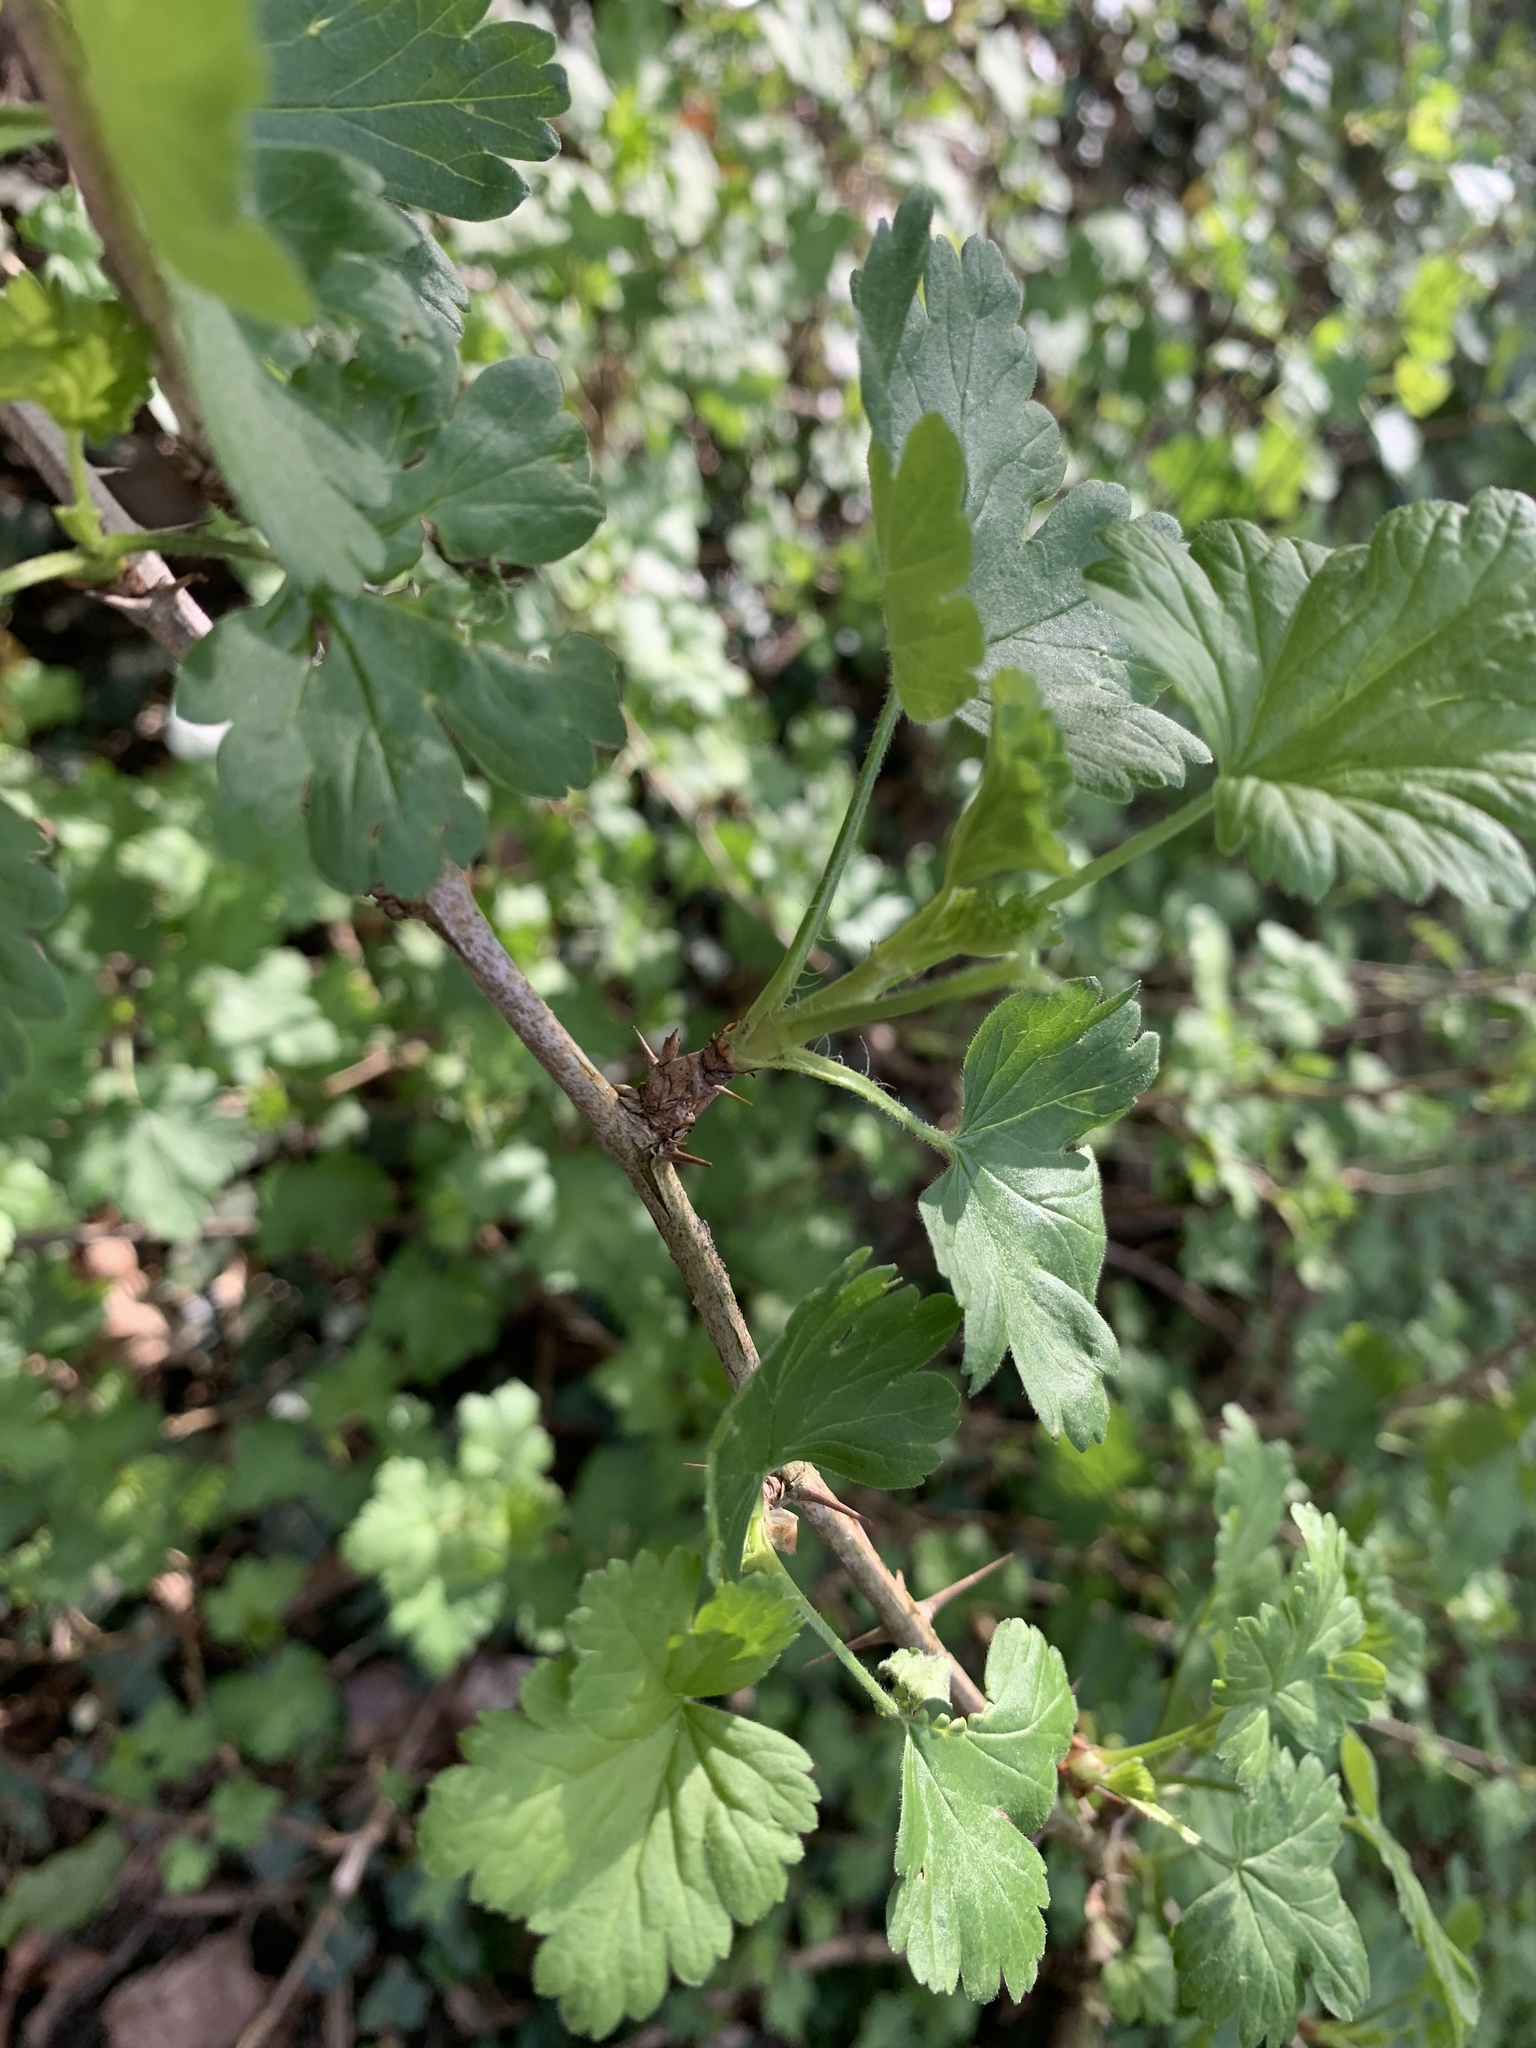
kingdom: Plantae
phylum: Tracheophyta
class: Magnoliopsida
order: Saxifragales
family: Grossulariaceae
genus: Ribes
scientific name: Ribes uva-crispa
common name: Gooseberry
